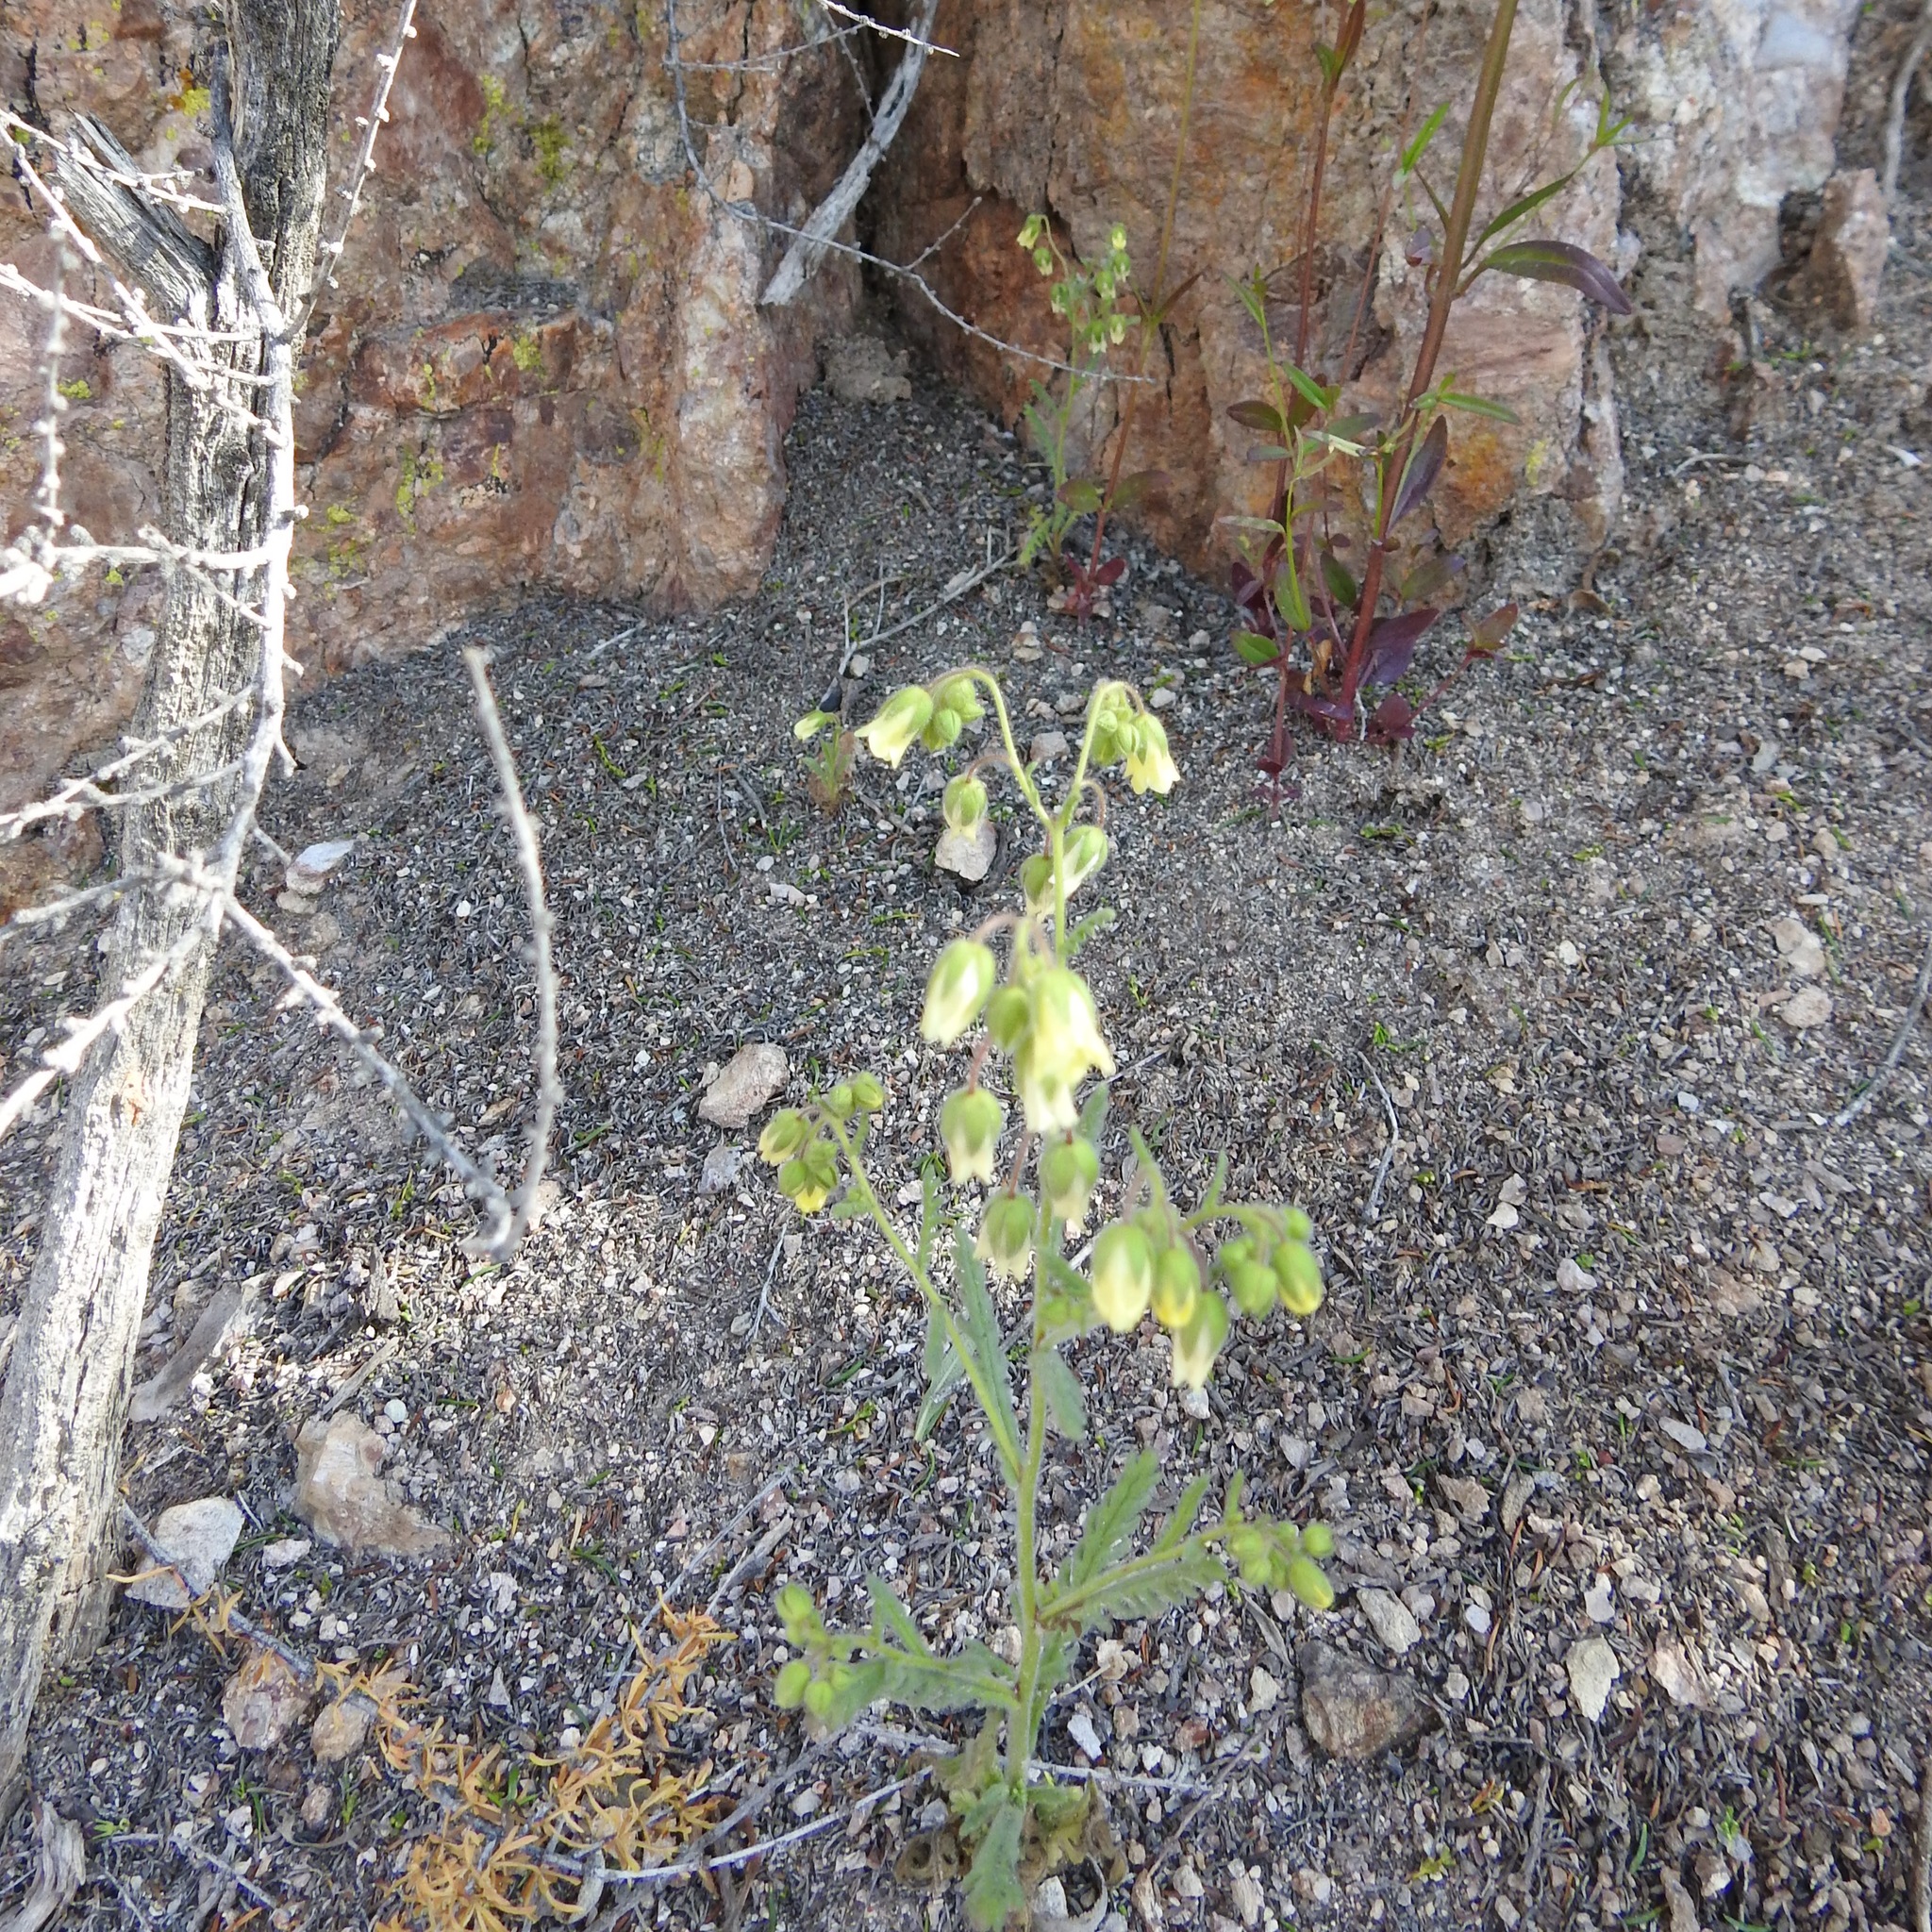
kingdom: Plantae
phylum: Tracheophyta
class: Magnoliopsida
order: Boraginales
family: Hydrophyllaceae
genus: Emmenanthe
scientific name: Emmenanthe penduliflora
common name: Whispering-bells
